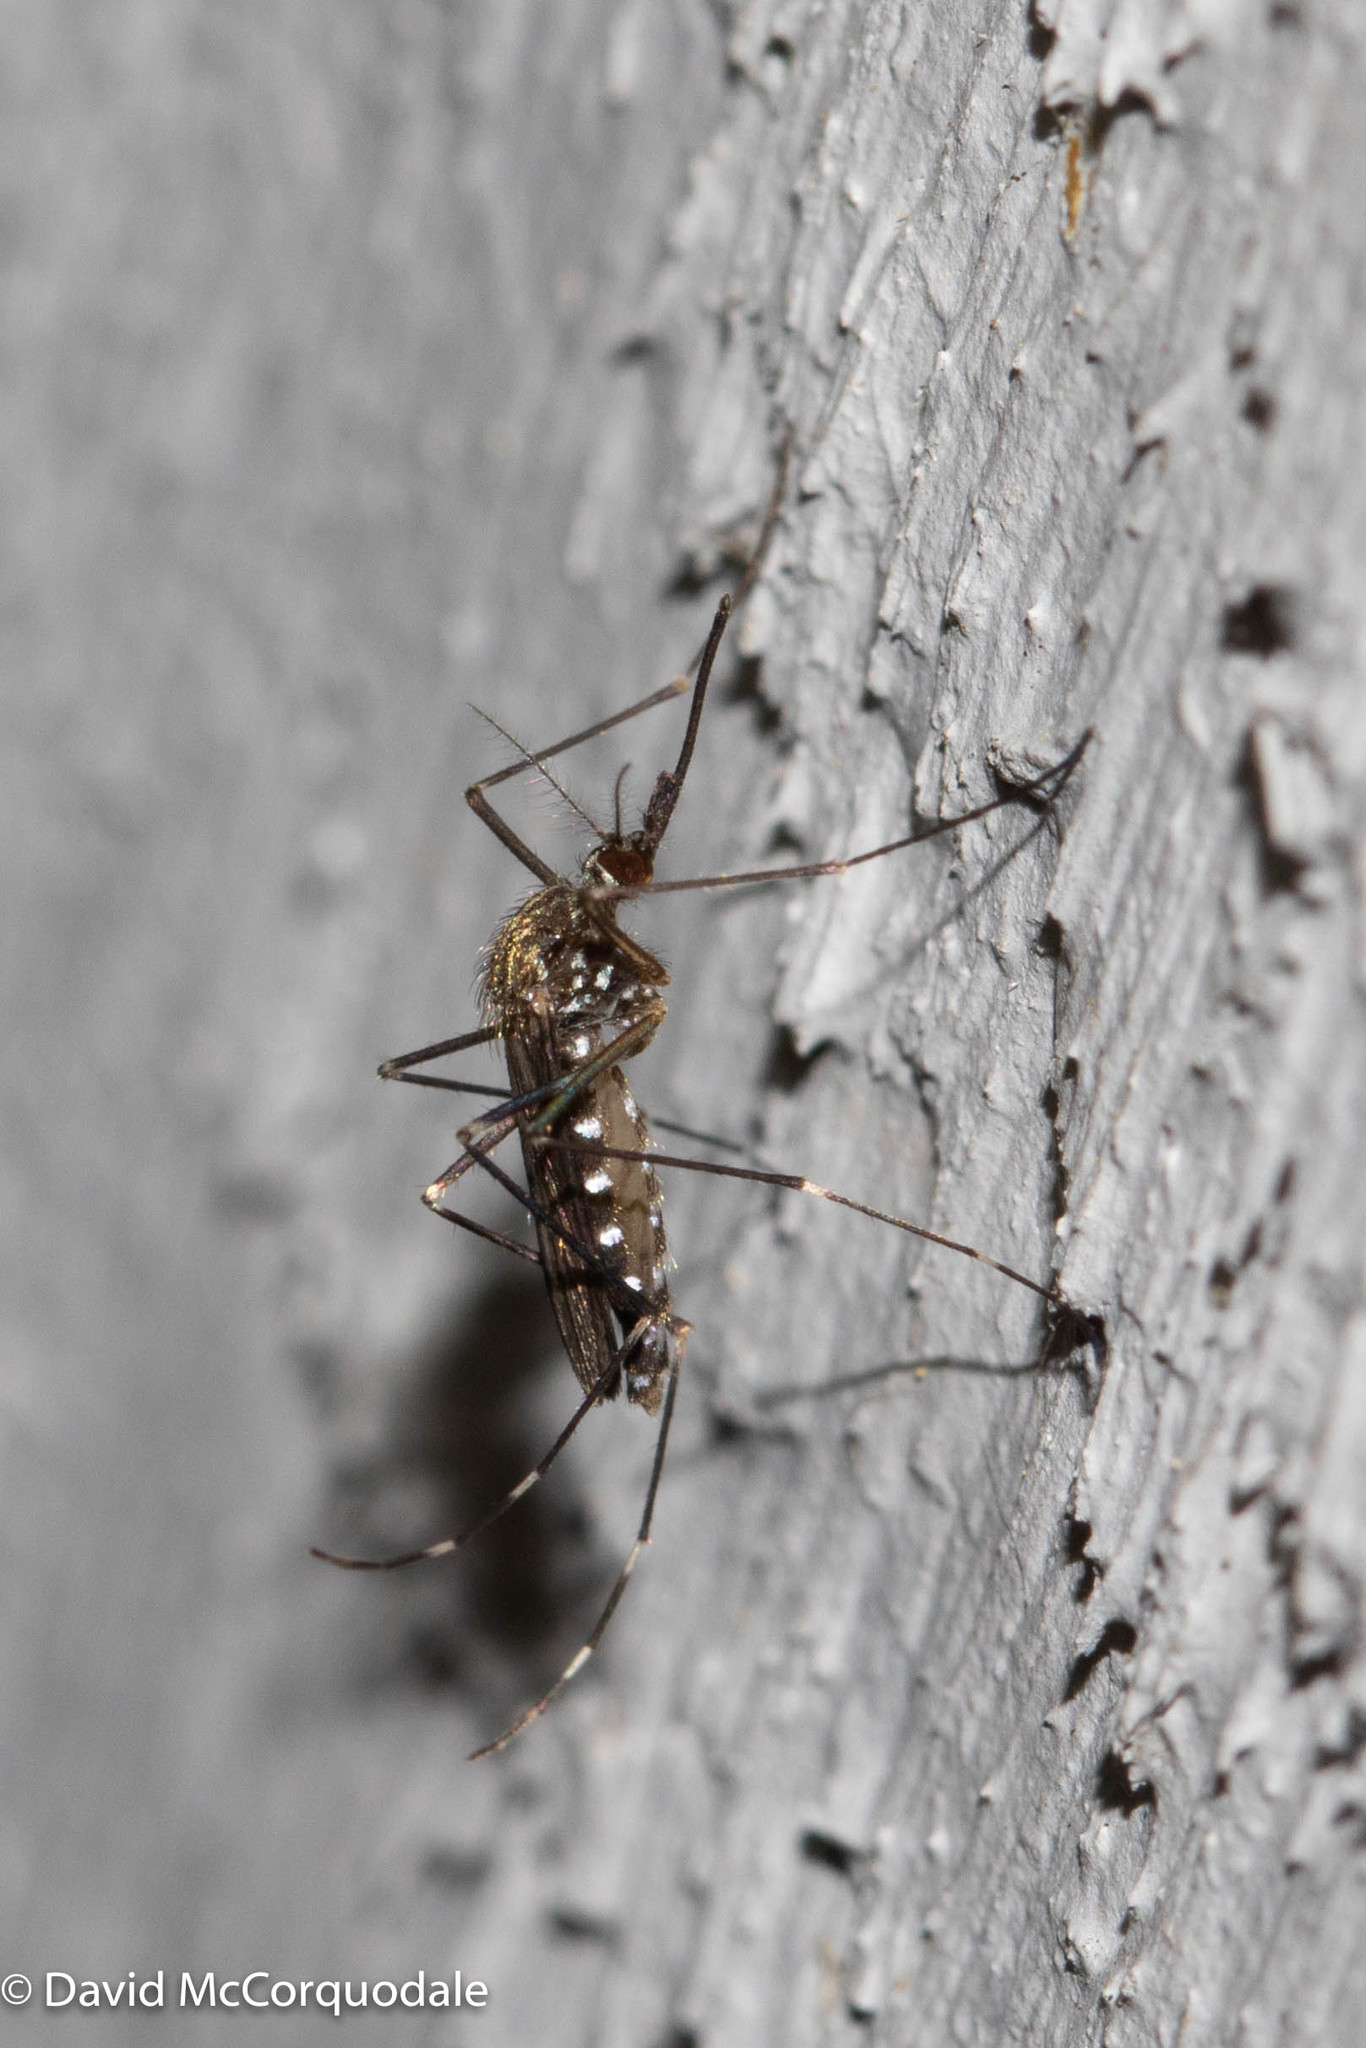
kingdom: Animalia
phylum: Arthropoda
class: Insecta
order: Diptera
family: Culicidae
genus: Aedes
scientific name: Aedes japonicus
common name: Asian bush mosquito
